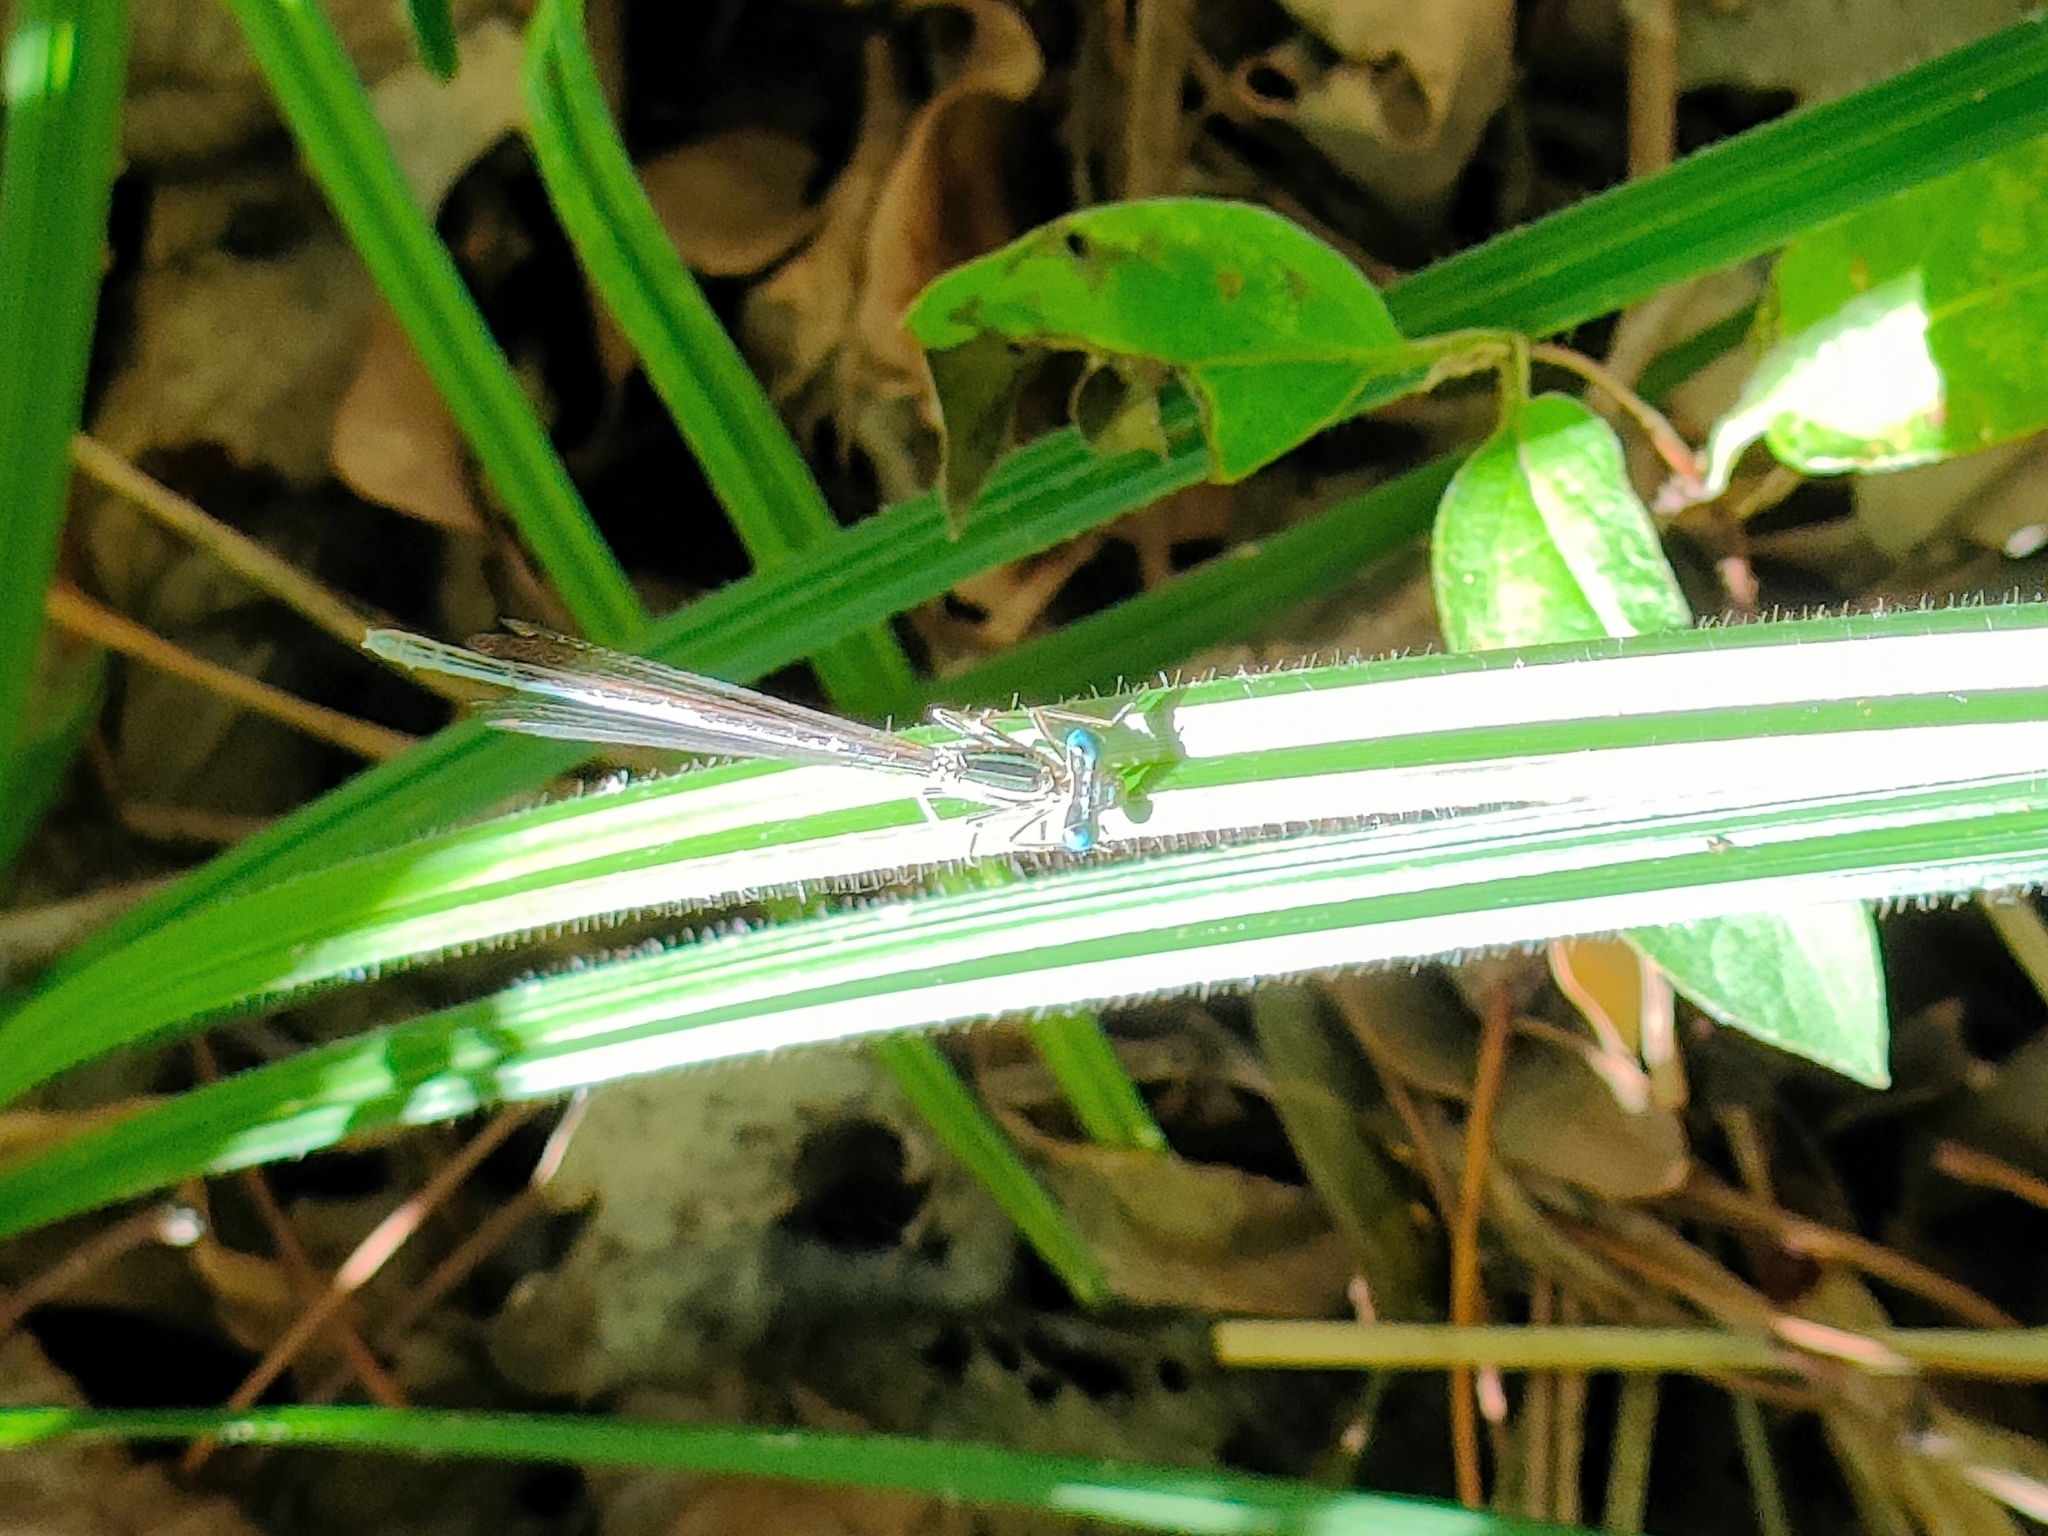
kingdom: Animalia
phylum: Arthropoda
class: Insecta
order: Odonata
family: Platycnemididae
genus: Platycnemis
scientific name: Platycnemis pennipes
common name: White-legged damselfly
